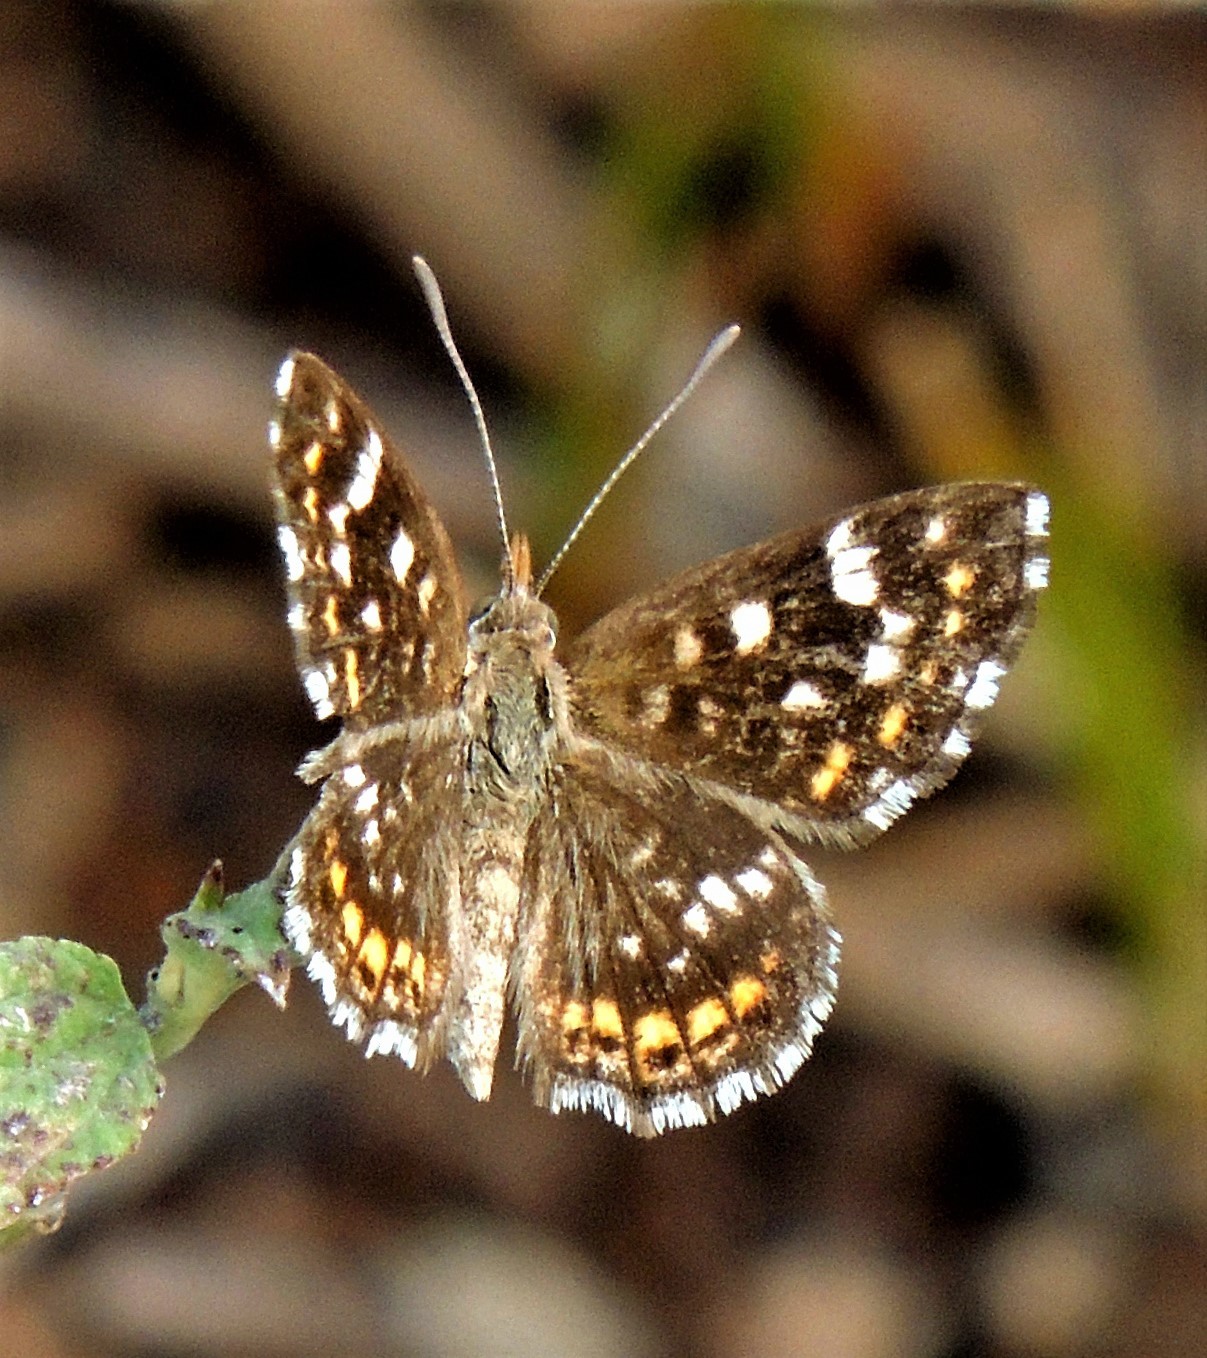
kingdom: Animalia
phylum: Arthropoda
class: Insecta
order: Lepidoptera
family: Lycaenidae
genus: Aricoris
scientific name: Aricoris signata
